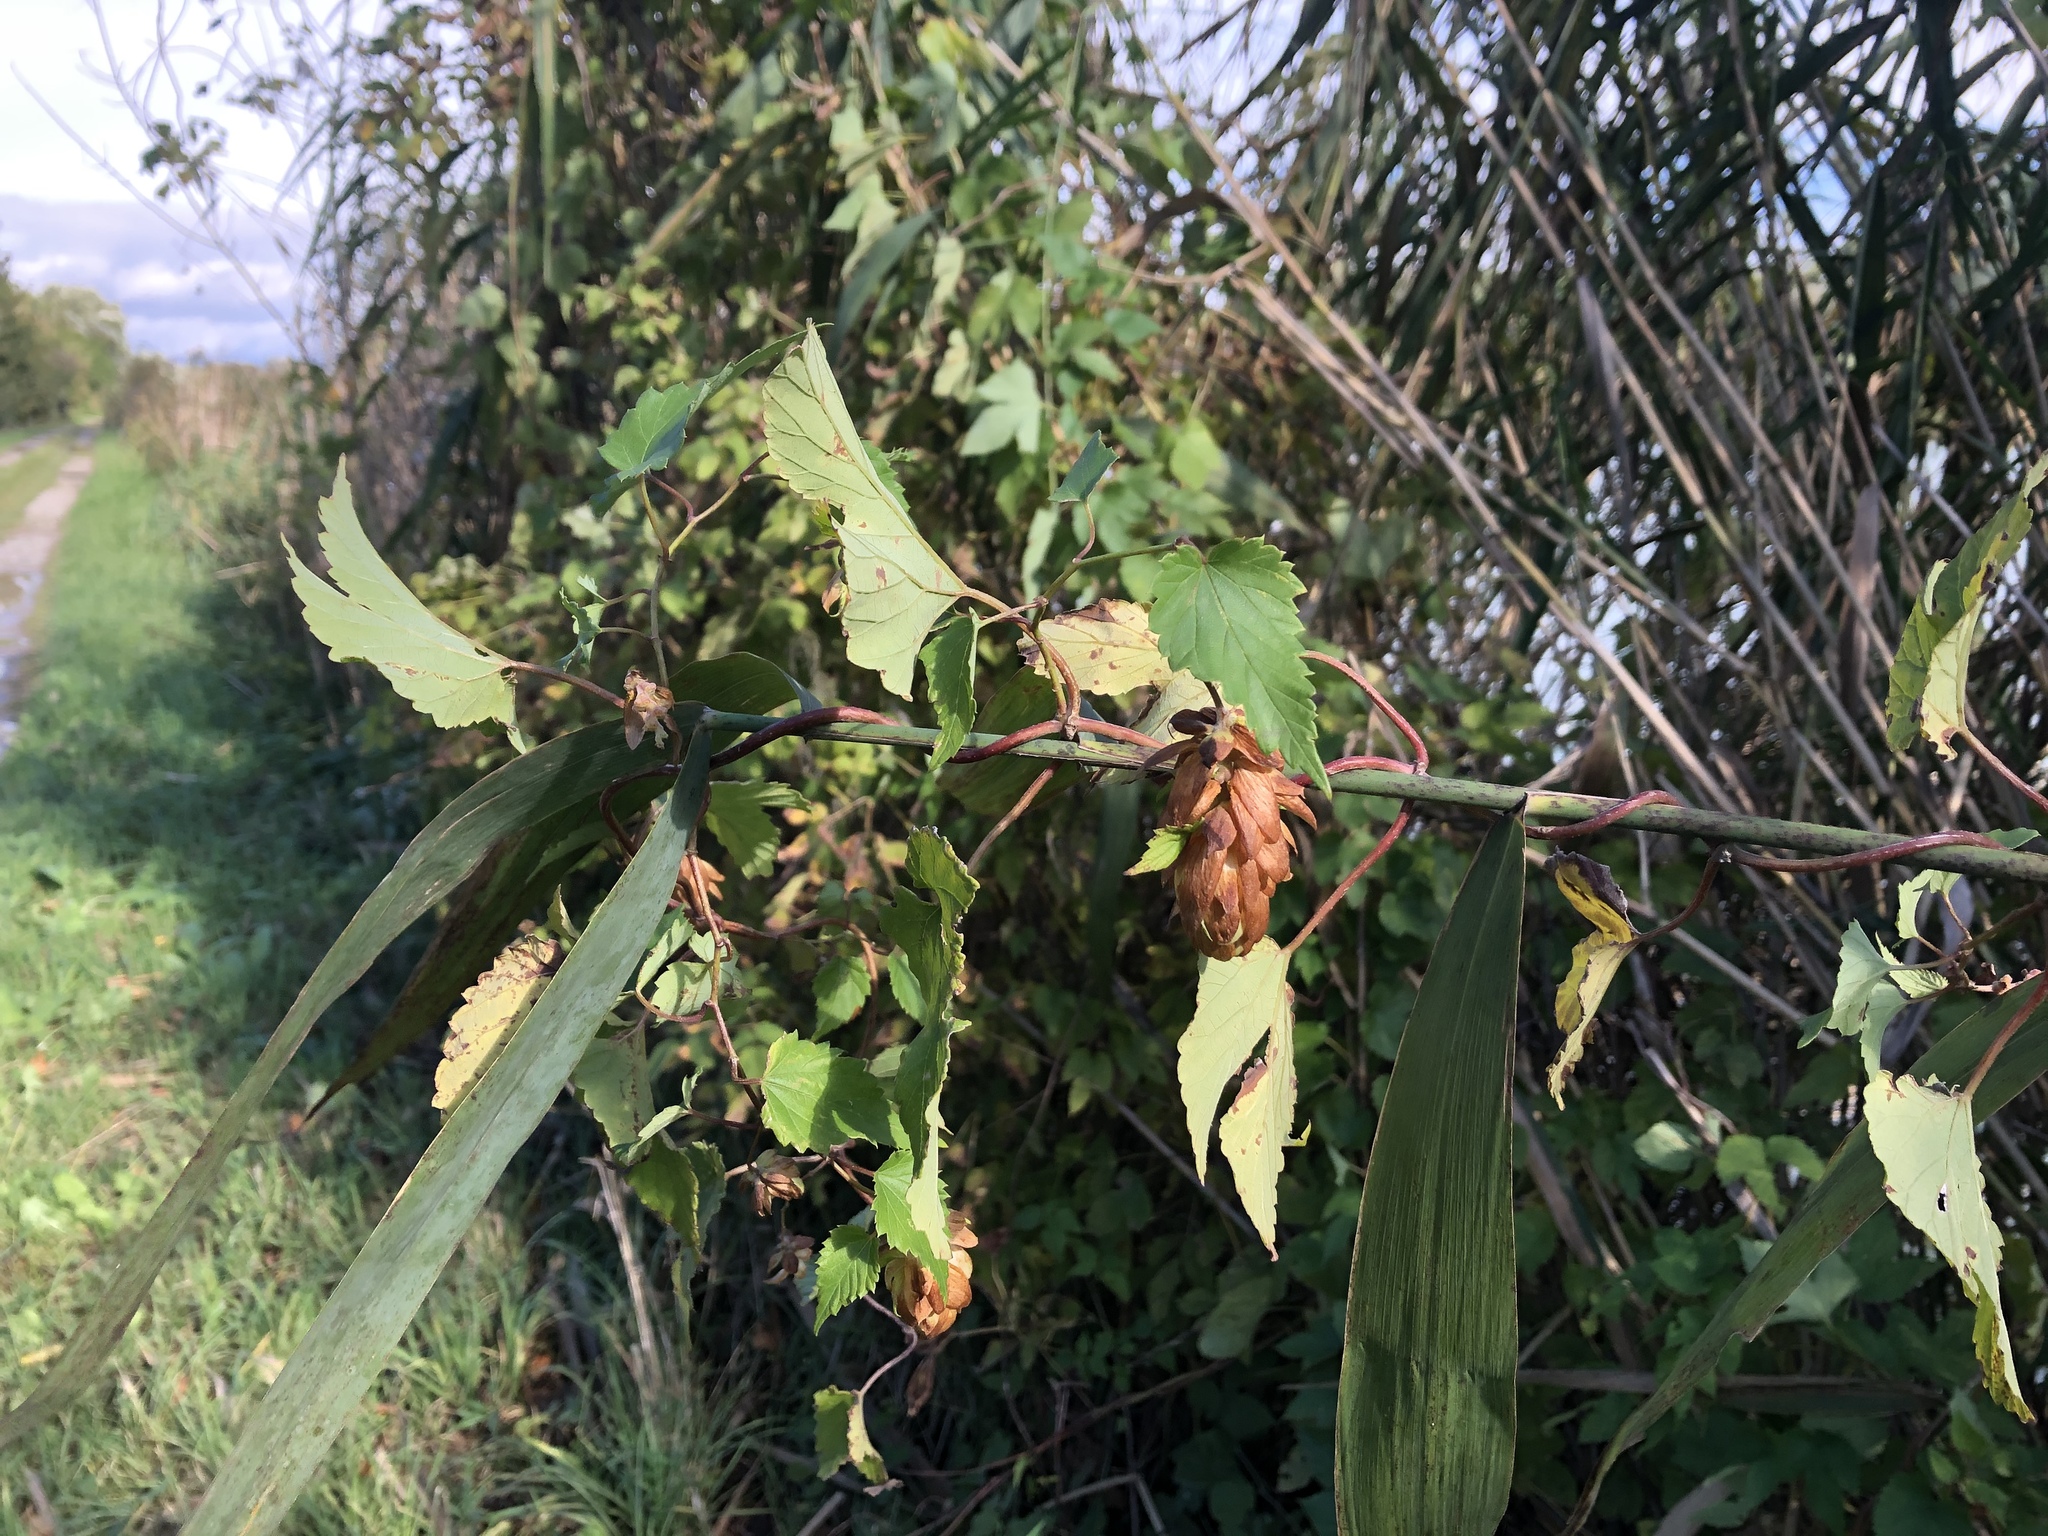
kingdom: Plantae
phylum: Tracheophyta
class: Magnoliopsida
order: Rosales
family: Cannabaceae
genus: Humulus
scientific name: Humulus lupulus
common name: Hop
